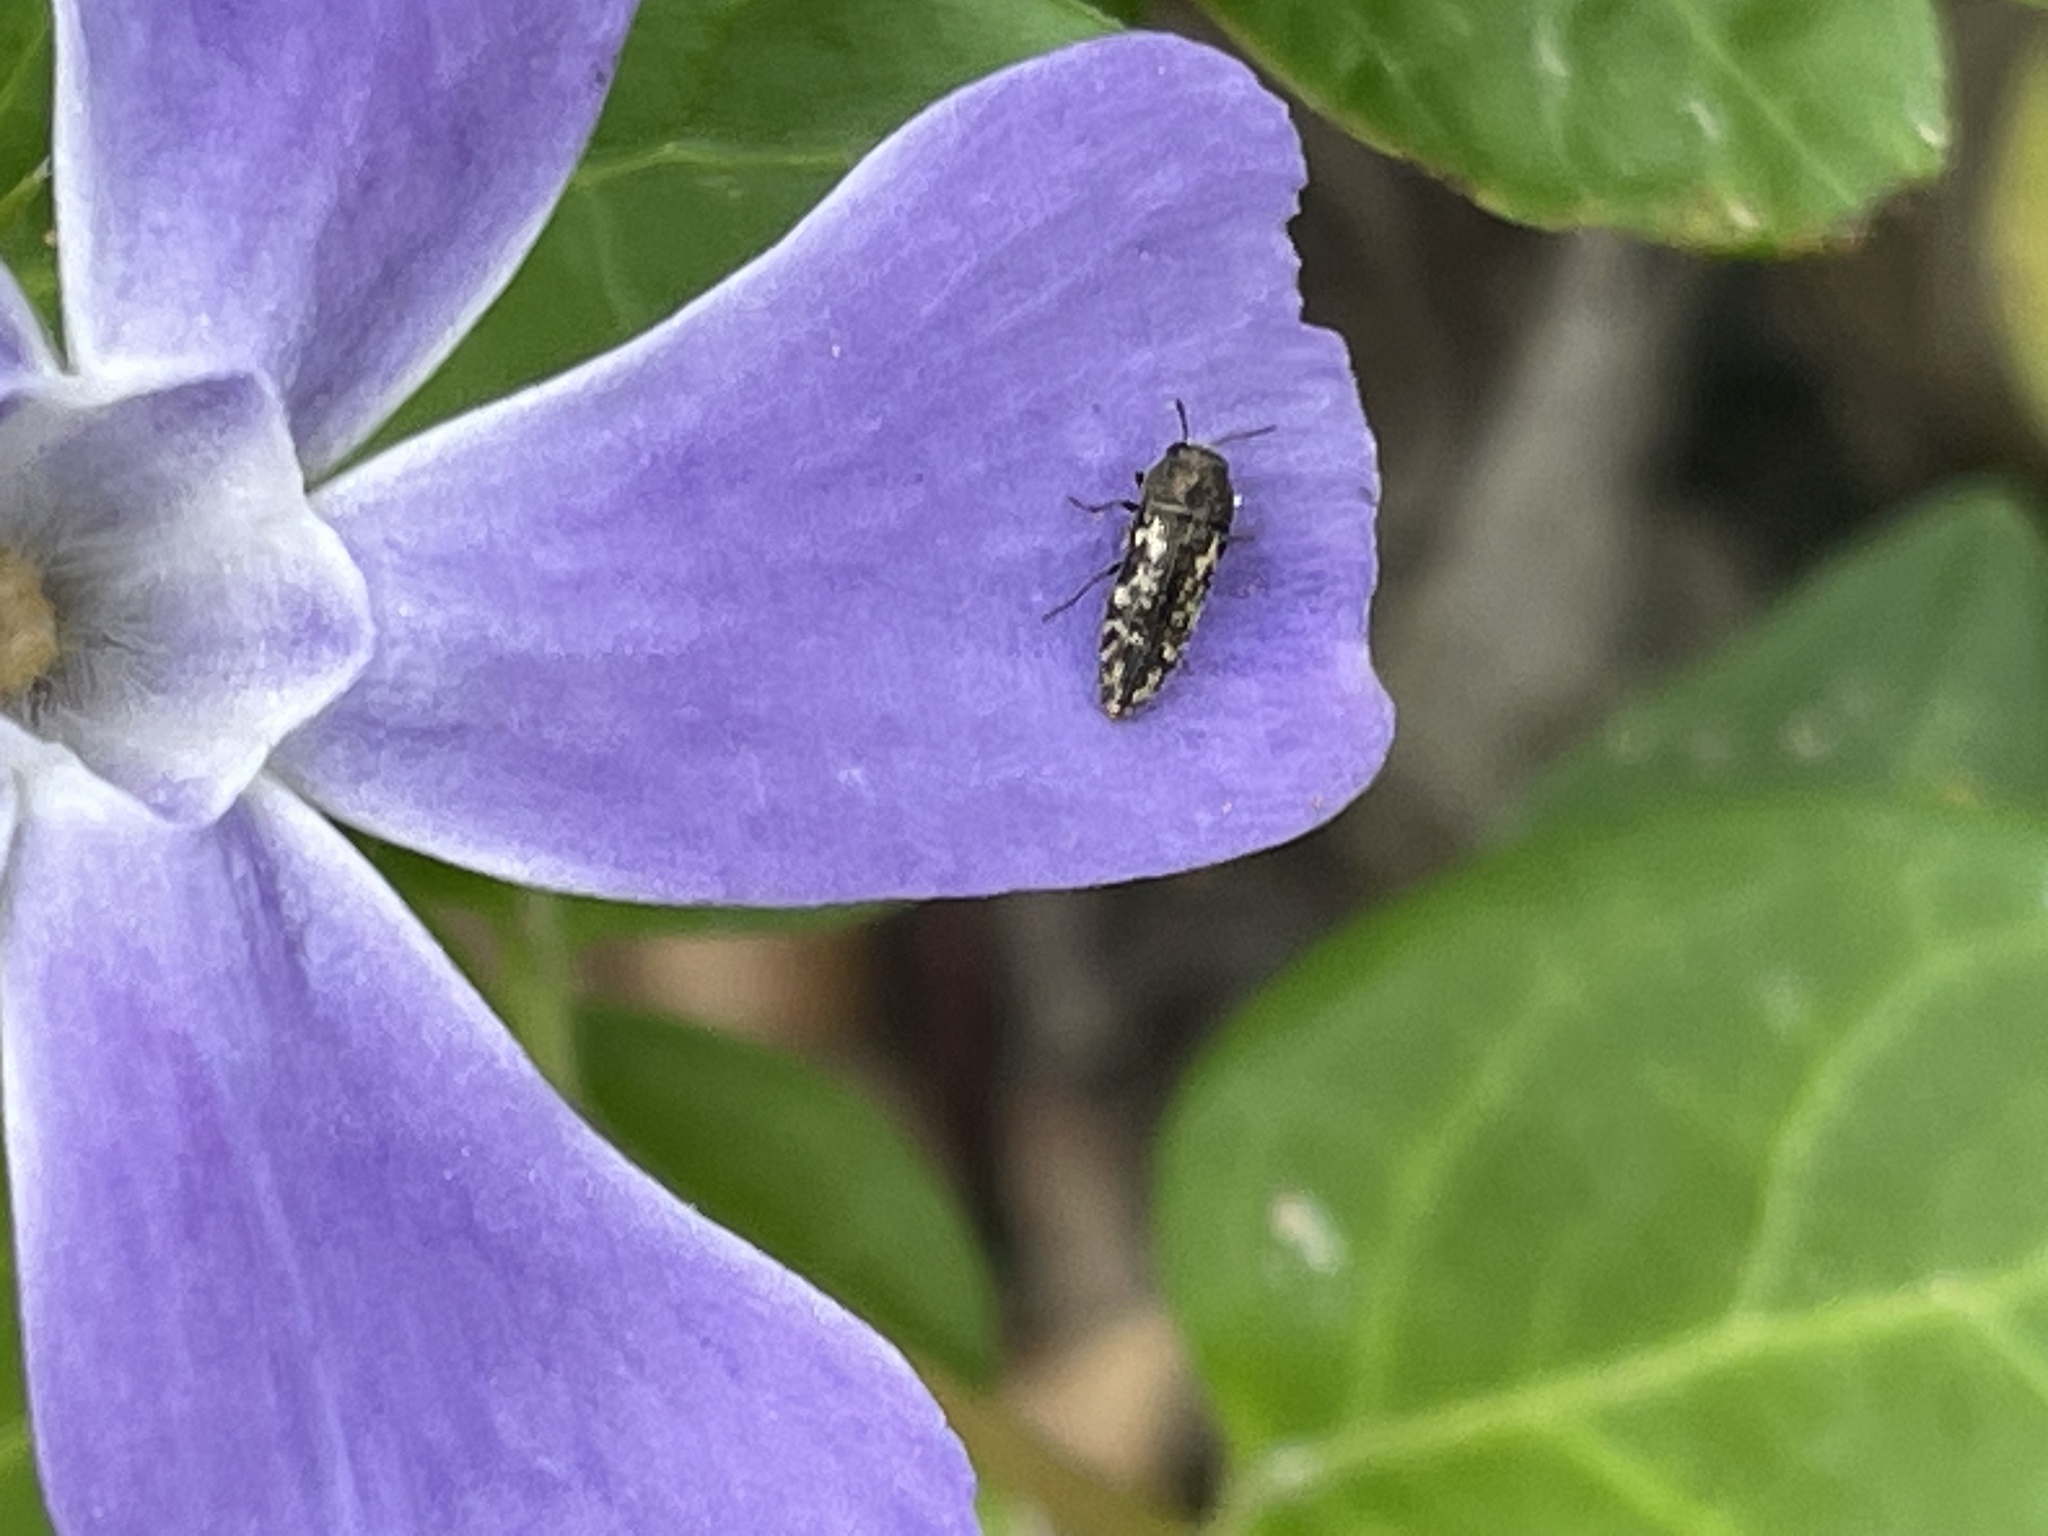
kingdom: Animalia
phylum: Arthropoda
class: Insecta
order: Coleoptera
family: Buprestidae
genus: Acmaeodera
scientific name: Acmaeodera neglecta
